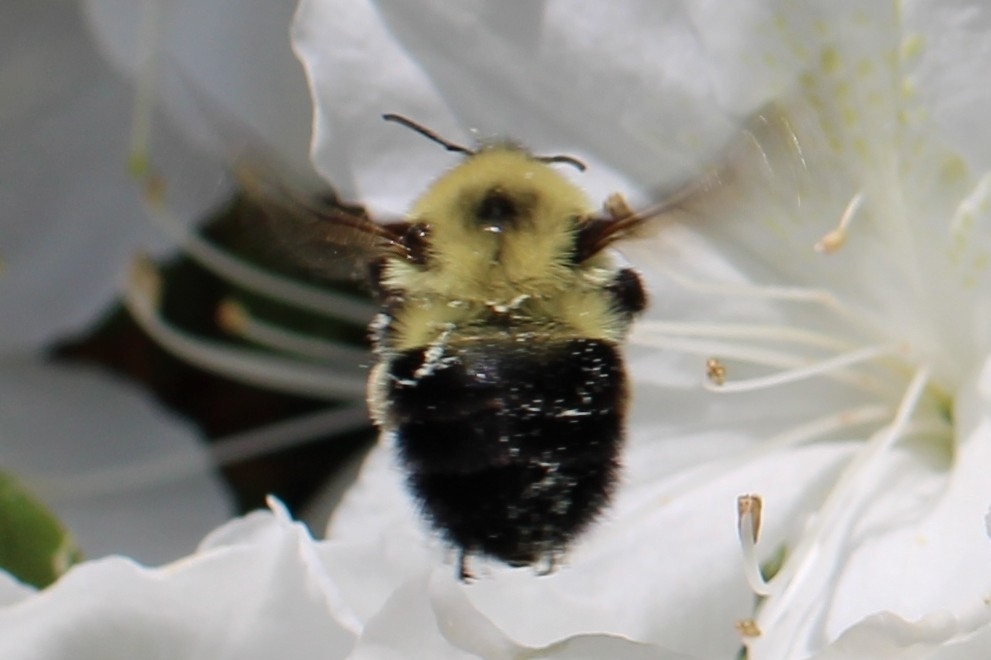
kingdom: Animalia
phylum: Arthropoda
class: Insecta
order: Hymenoptera
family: Apidae
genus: Bombus
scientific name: Bombus bimaculatus
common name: Two-spotted bumble bee
